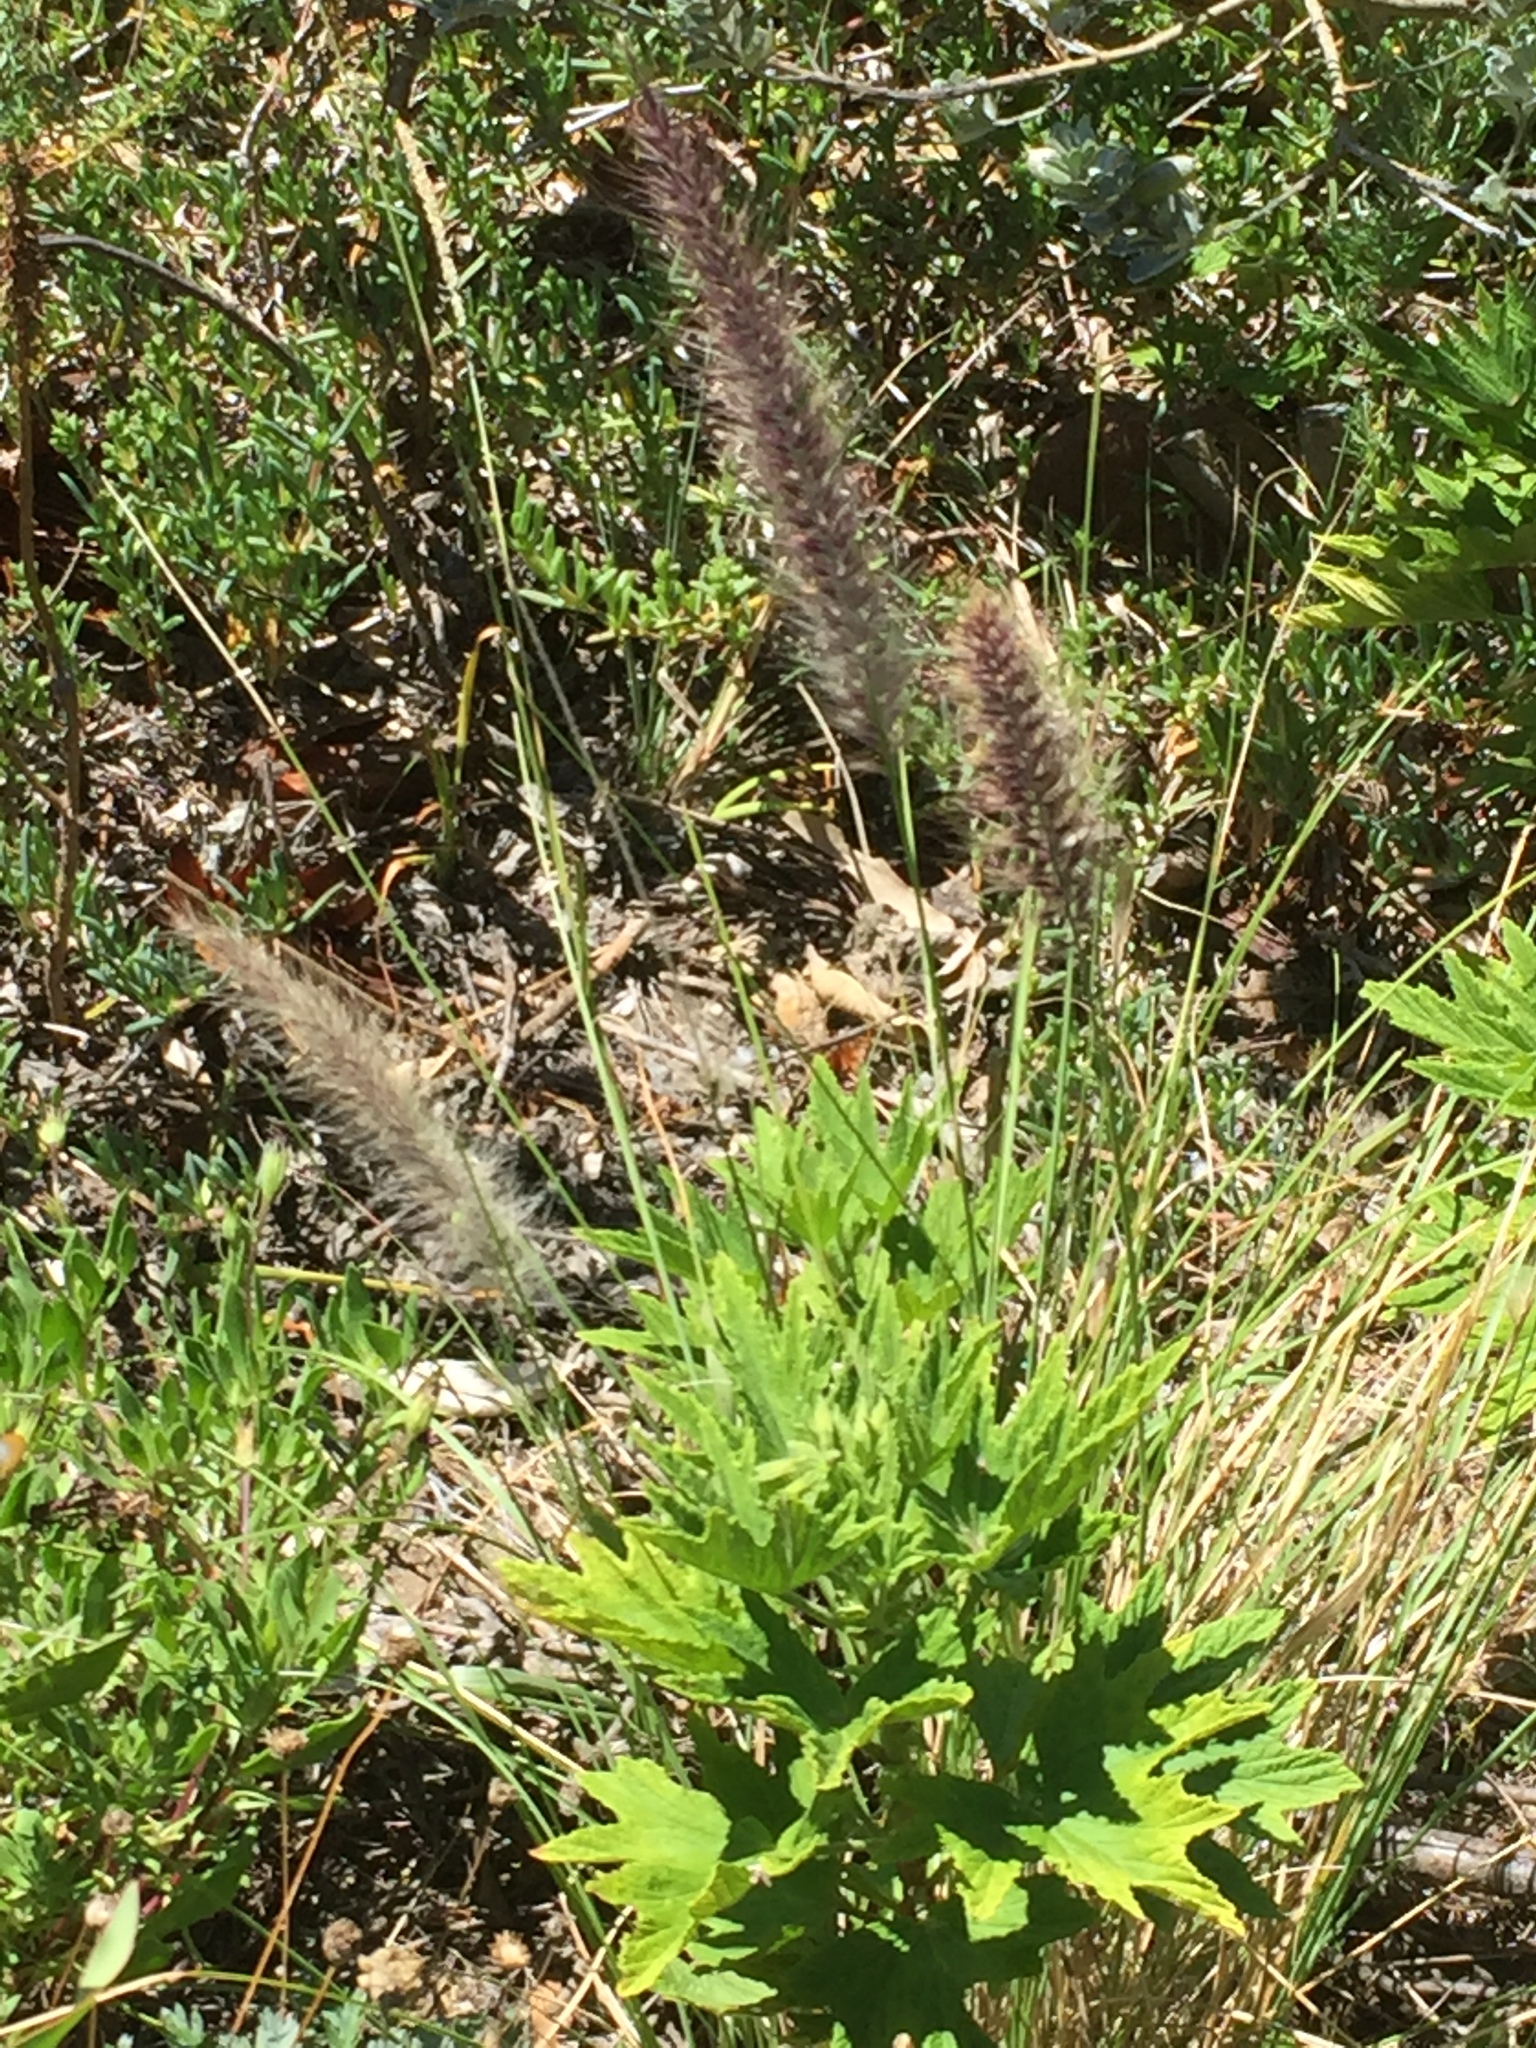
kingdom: Plantae
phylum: Tracheophyta
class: Liliopsida
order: Poales
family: Poaceae
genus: Cenchrus
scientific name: Cenchrus setaceus
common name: Crimson fountaingrass
